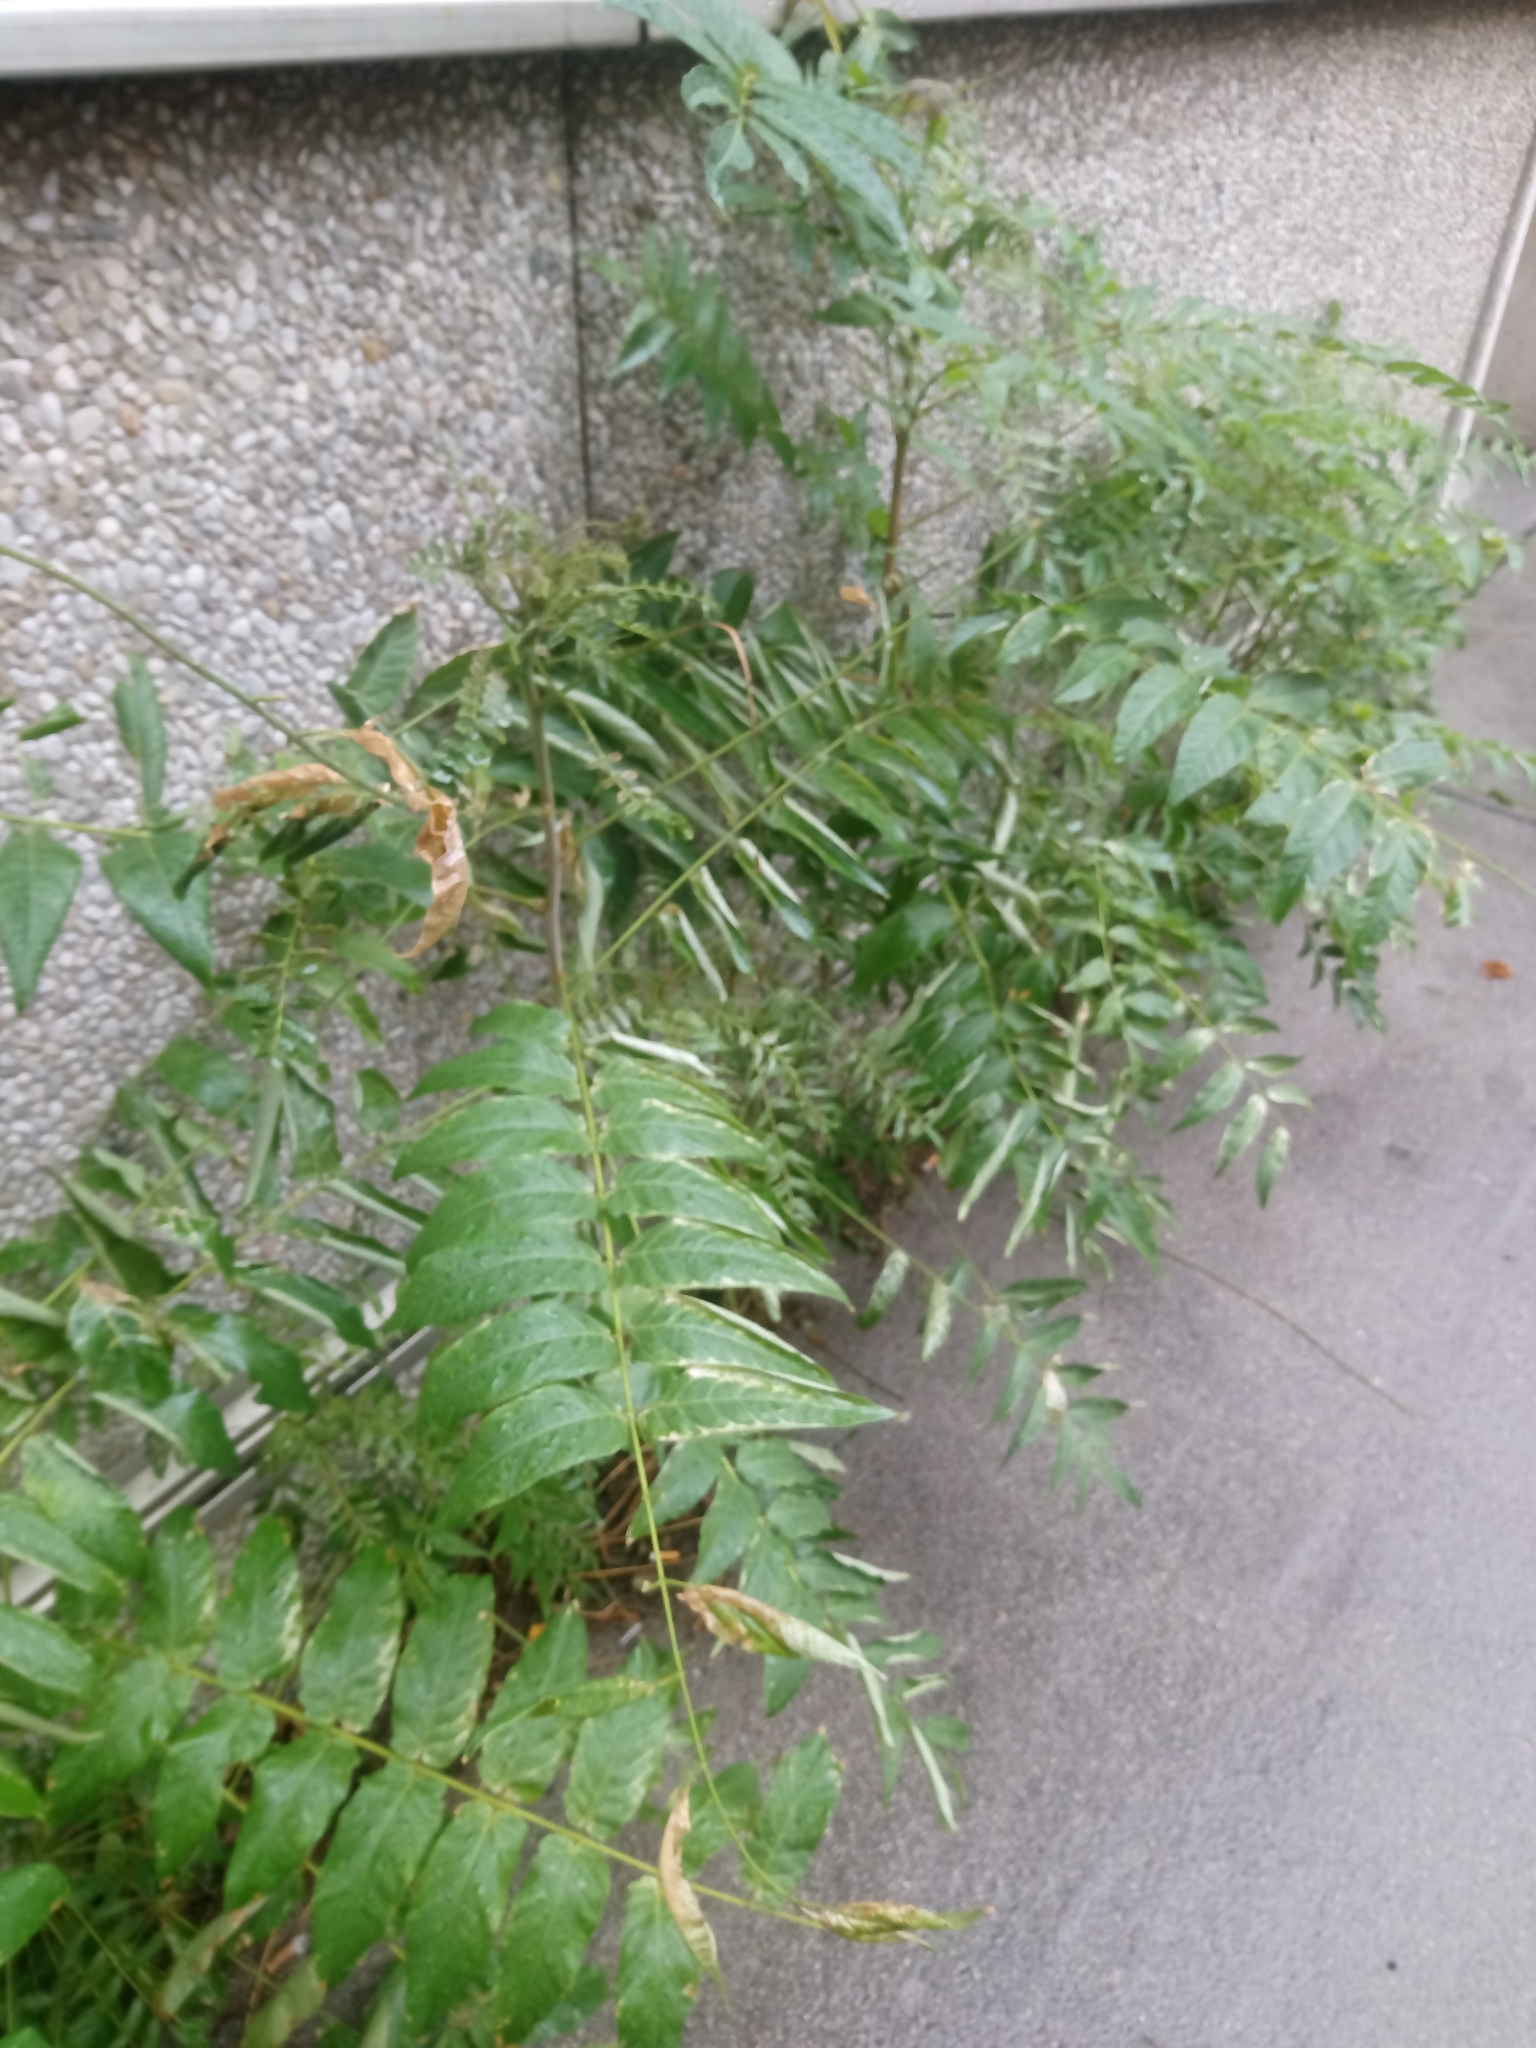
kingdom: Plantae
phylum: Tracheophyta
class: Magnoliopsida
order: Sapindales
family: Simaroubaceae
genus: Ailanthus
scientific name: Ailanthus altissima
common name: Tree-of-heaven
